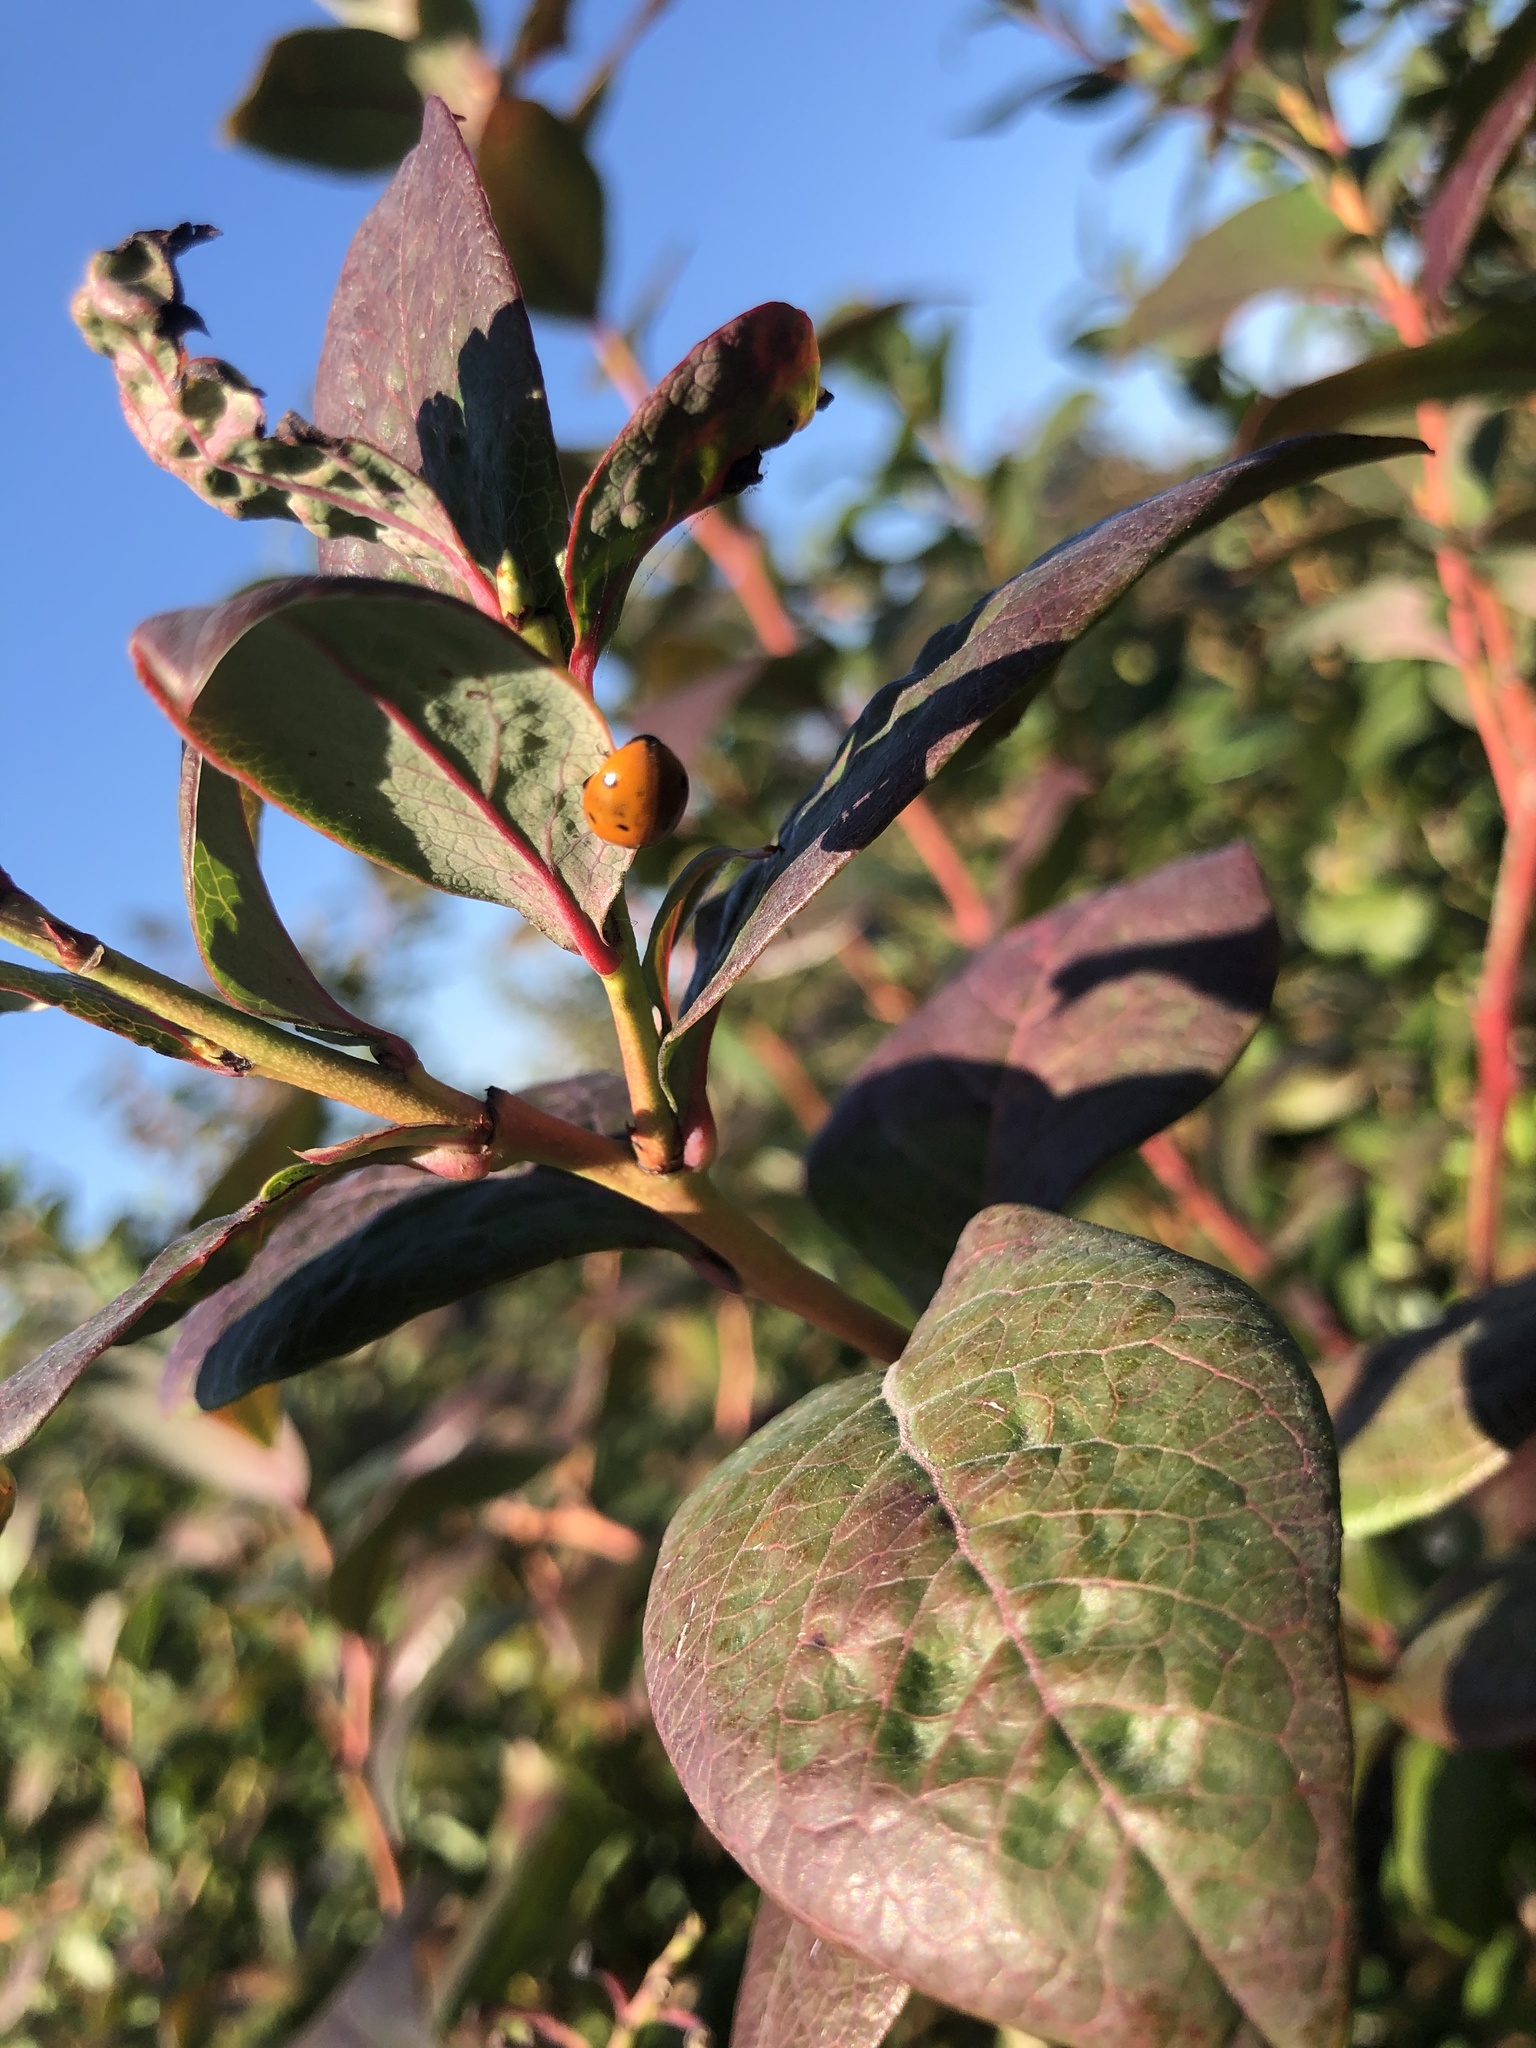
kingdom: Animalia
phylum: Arthropoda
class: Insecta
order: Coleoptera
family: Coccinellidae
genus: Coccinella
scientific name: Coccinella septempunctata
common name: Sevenspotted lady beetle
